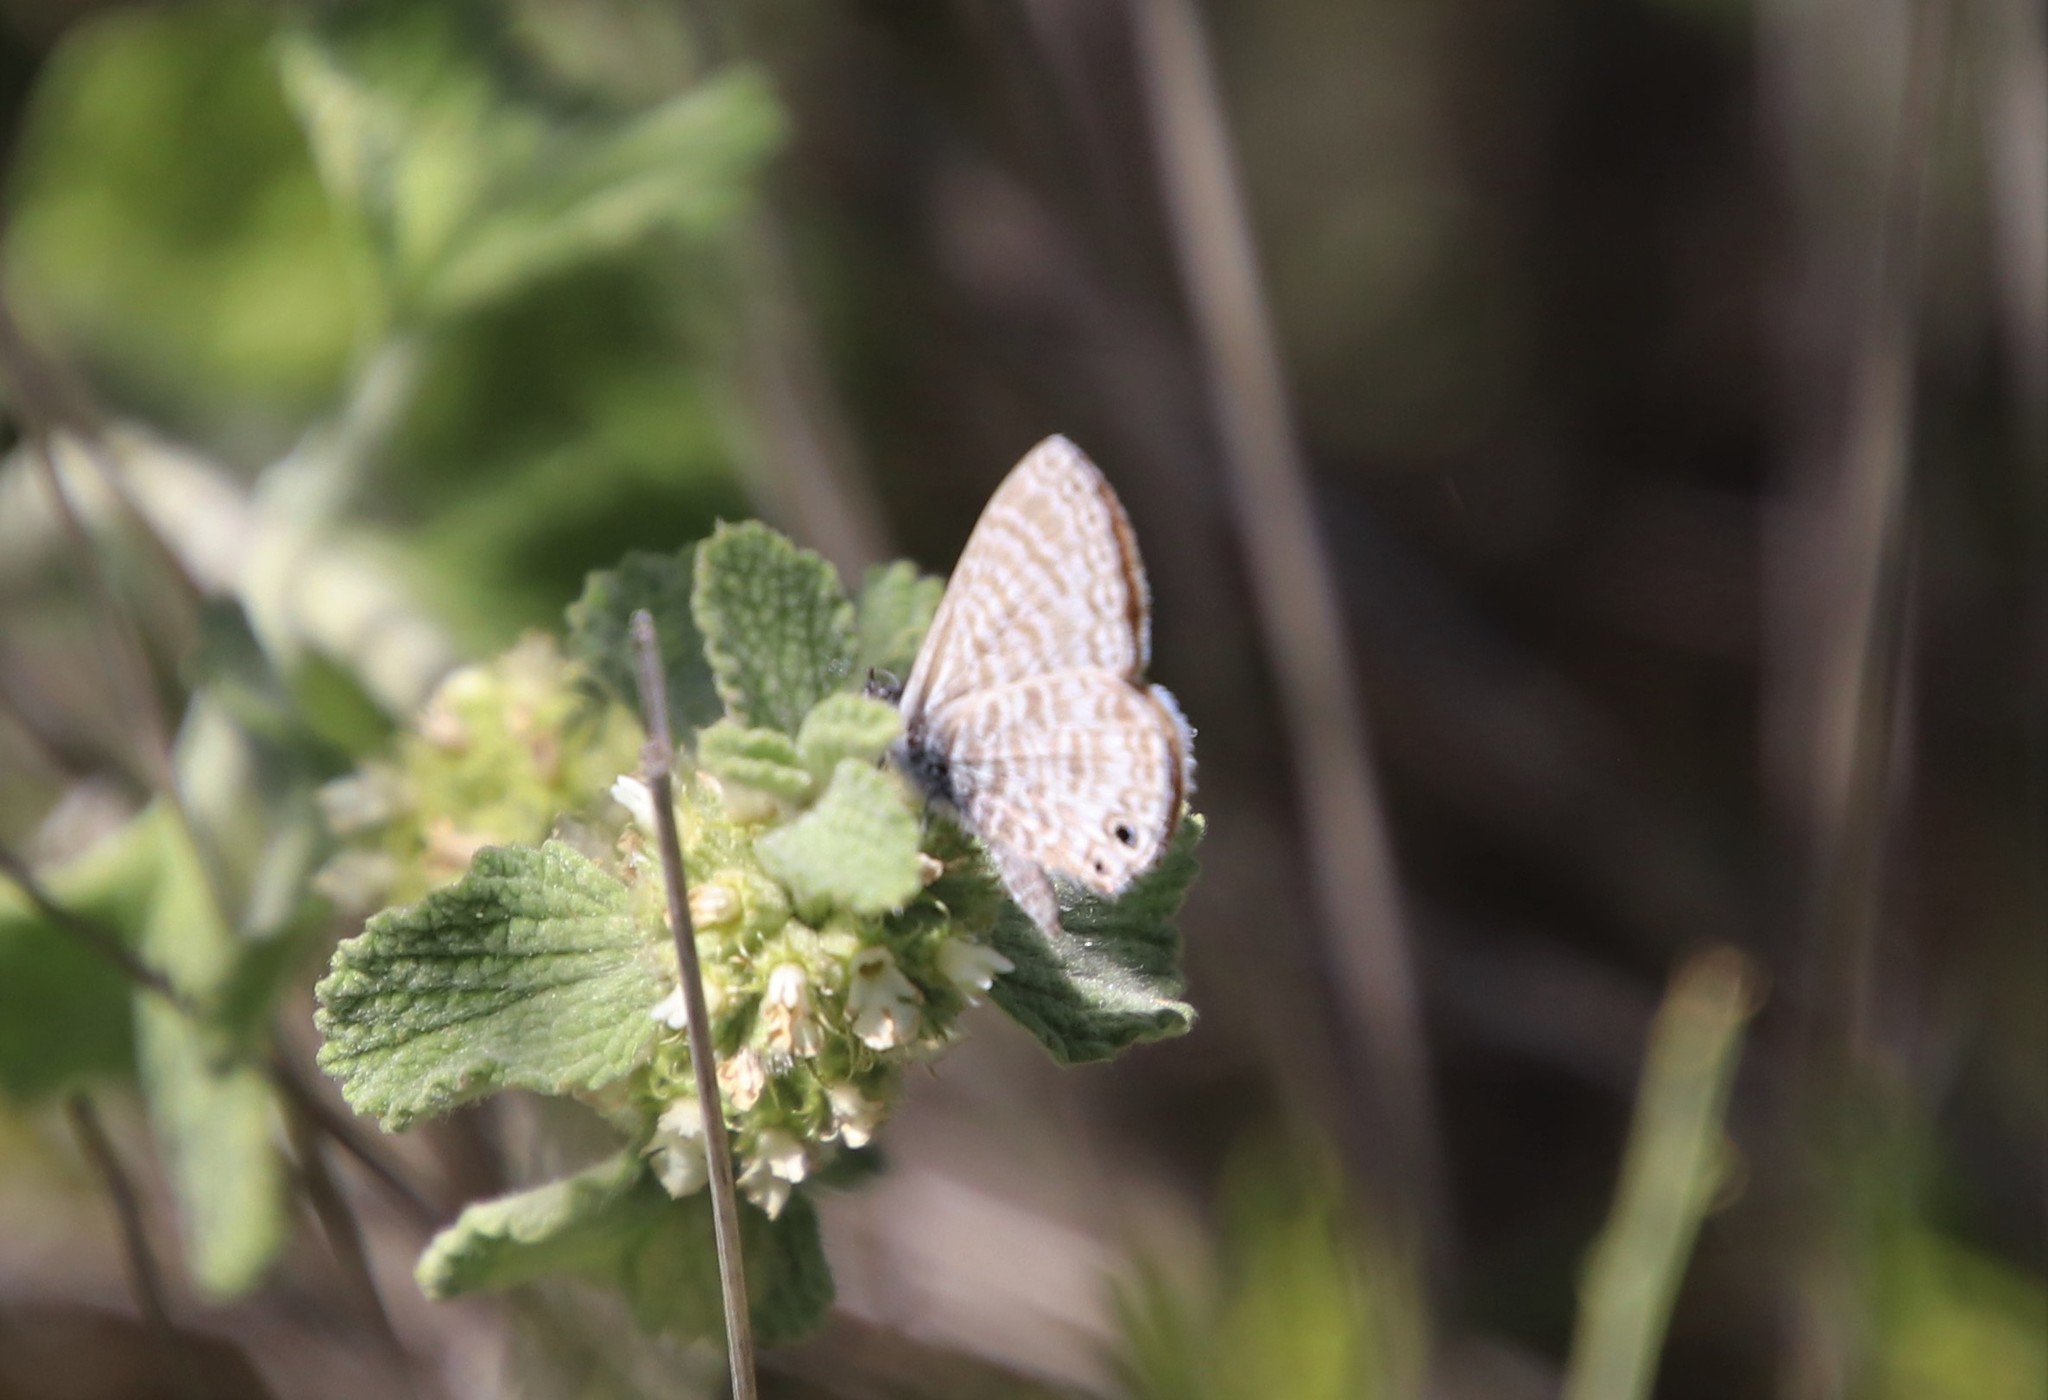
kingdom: Animalia
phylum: Arthropoda
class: Insecta
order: Lepidoptera
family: Lycaenidae
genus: Leptotes
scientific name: Leptotes marina
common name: Marine blue
